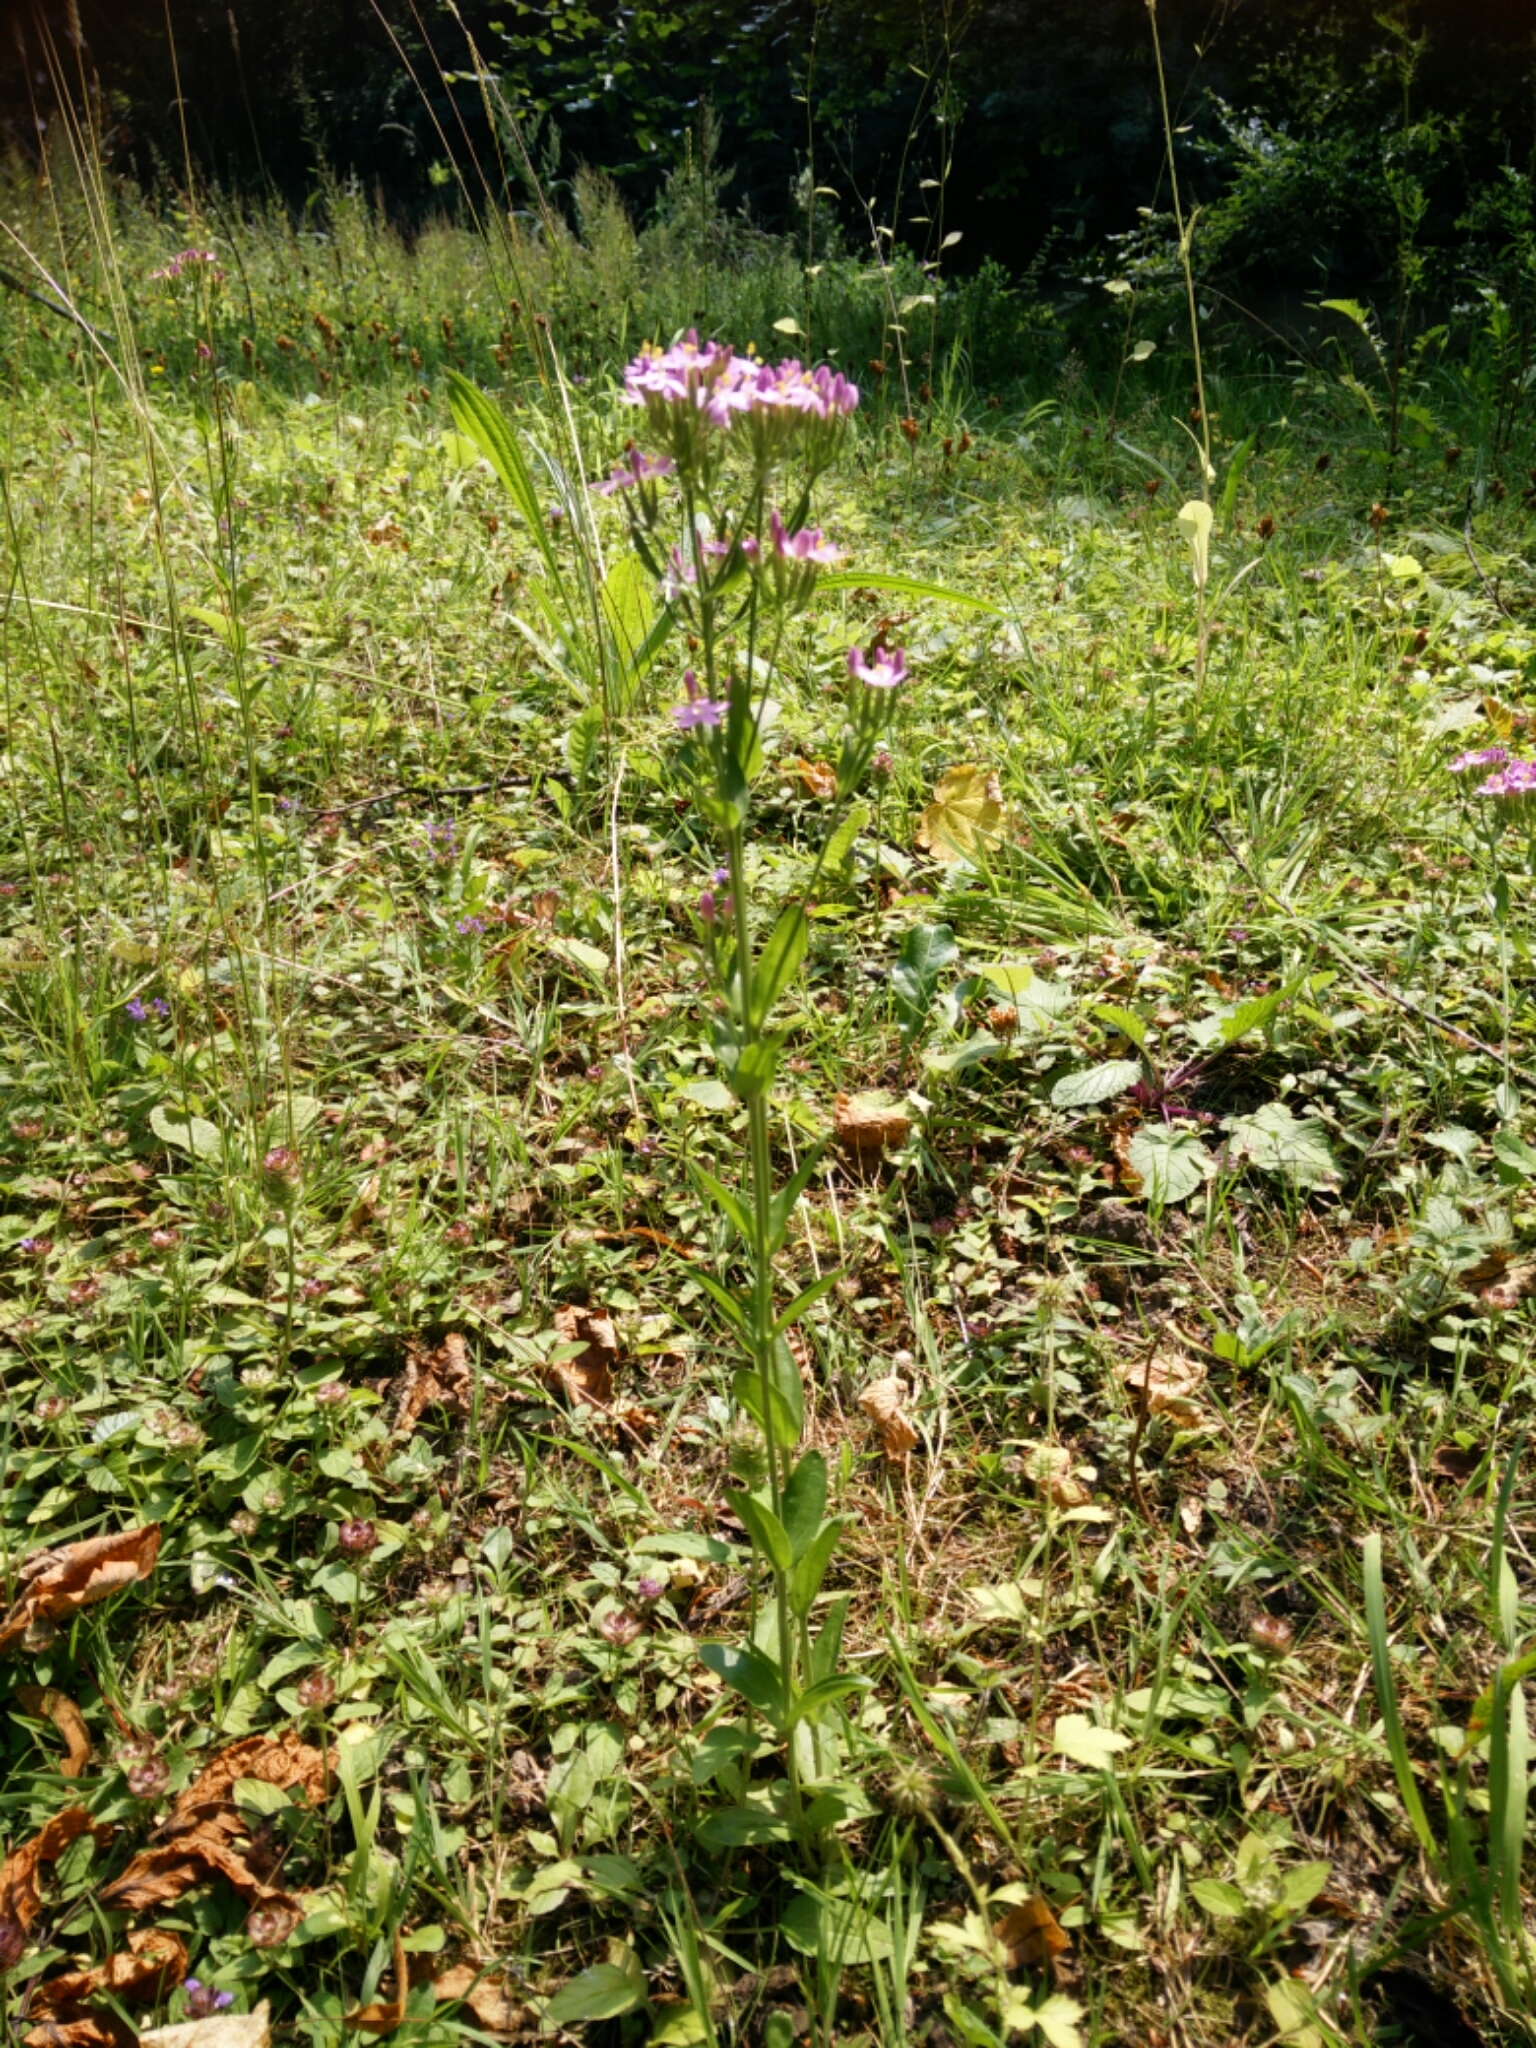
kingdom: Plantae
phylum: Tracheophyta
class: Magnoliopsida
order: Gentianales
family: Gentianaceae
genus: Centaurium
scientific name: Centaurium erythraea
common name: Common centaury
